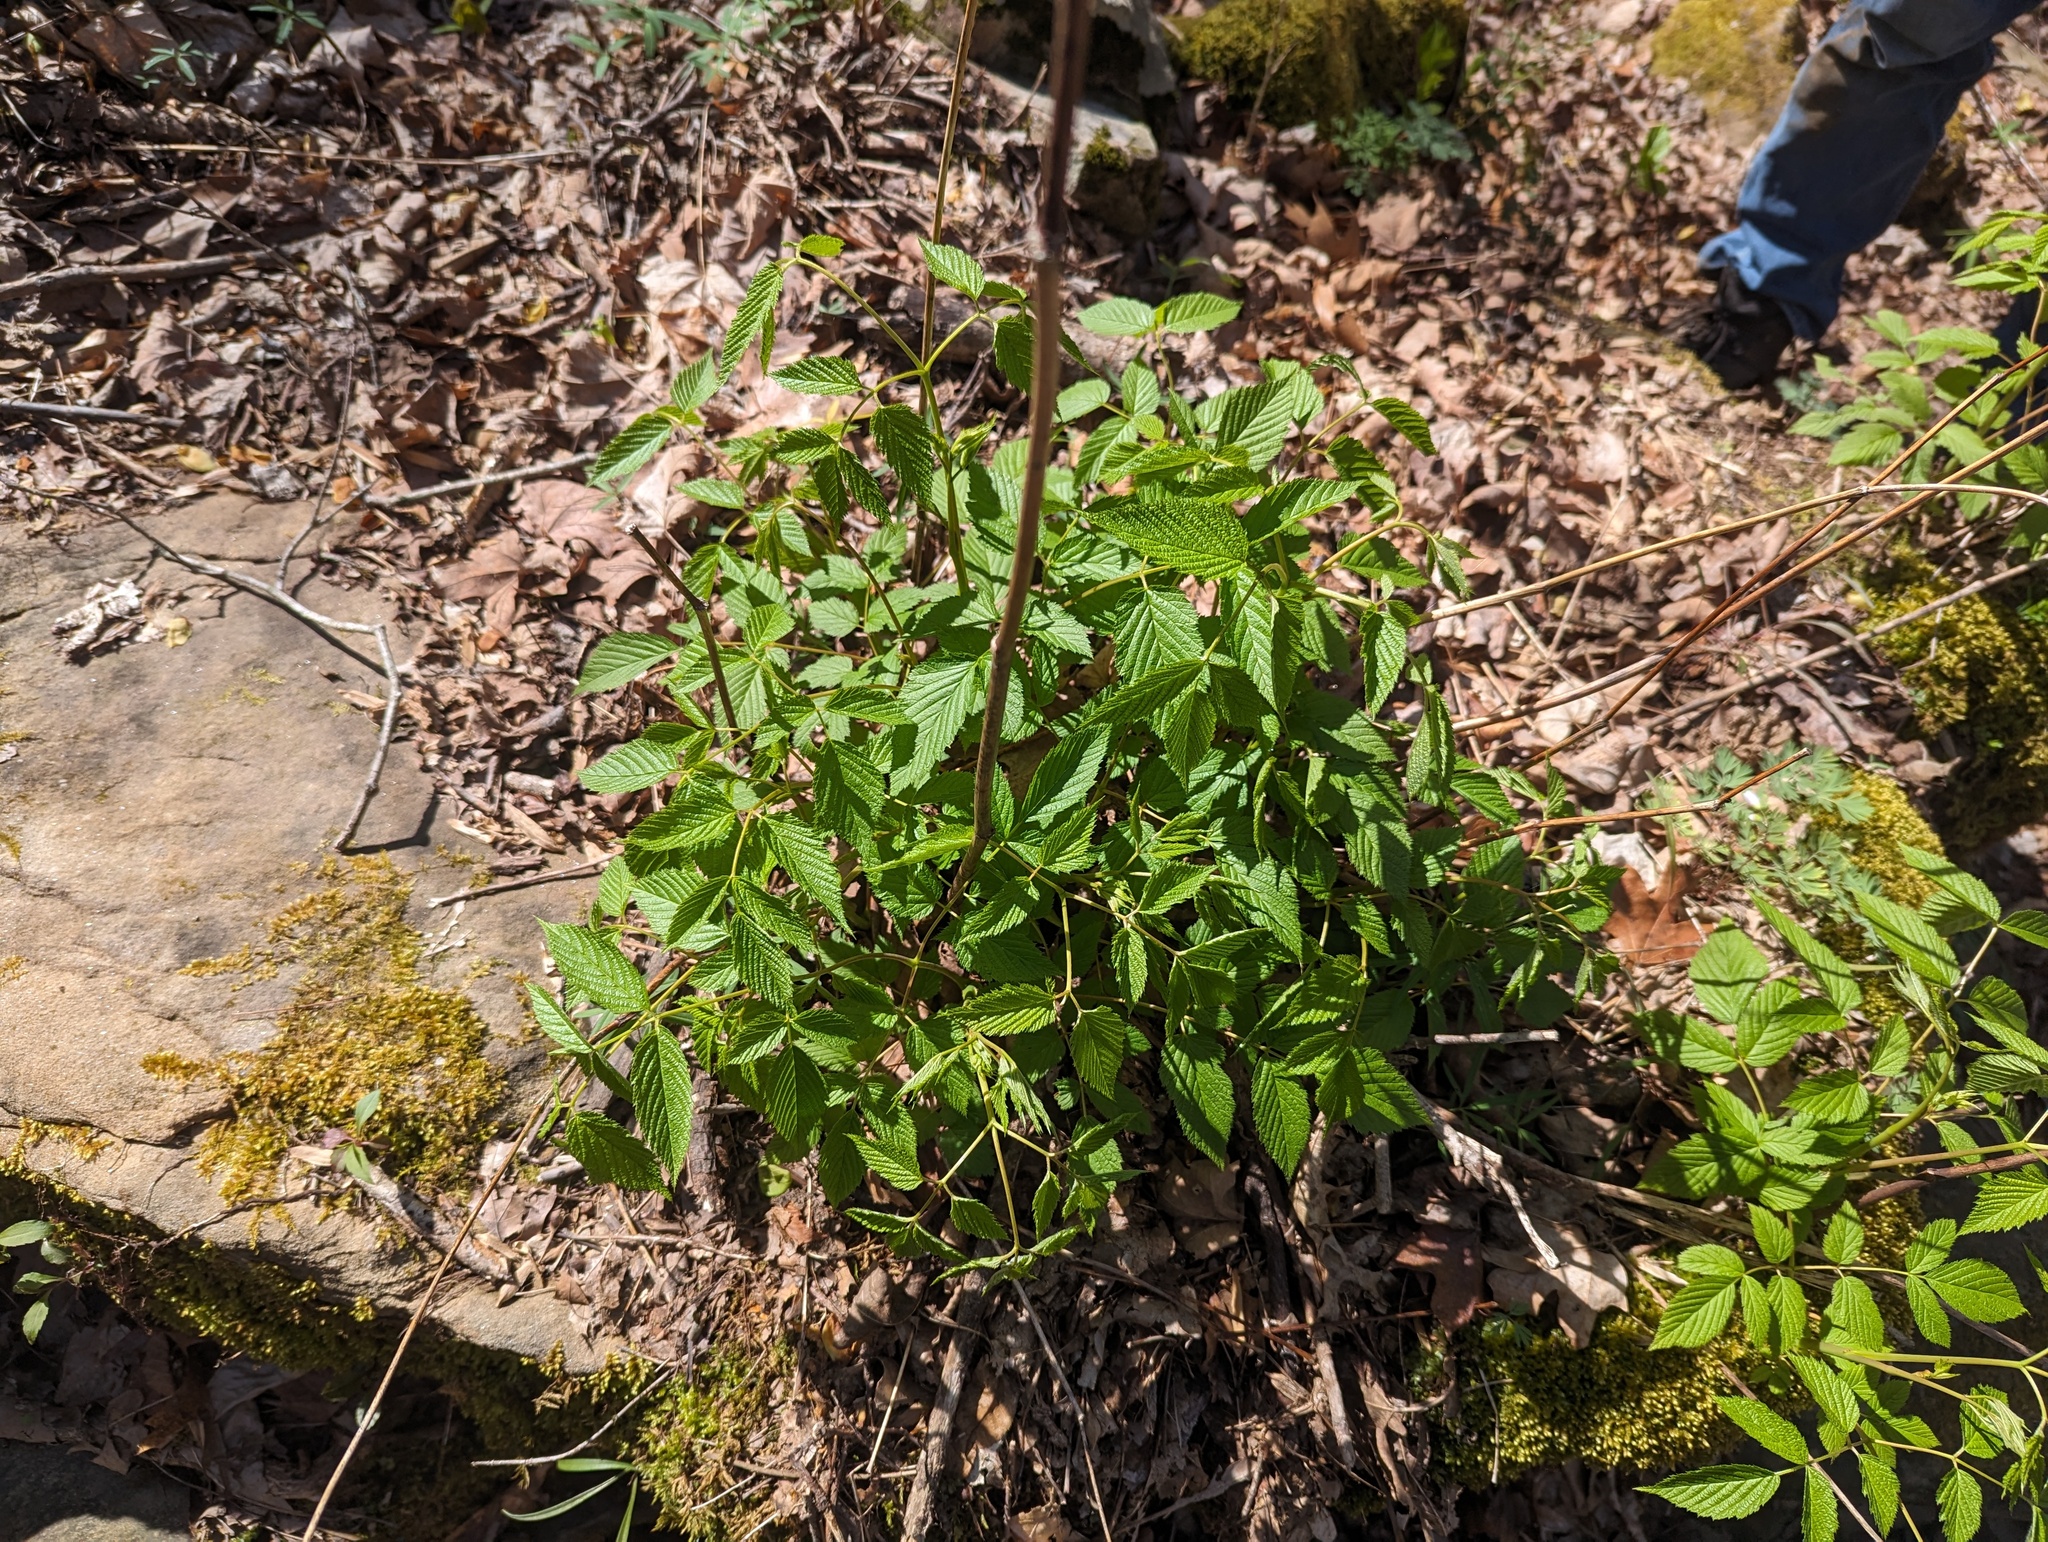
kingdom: Plantae
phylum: Tracheophyta
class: Magnoliopsida
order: Rosales
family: Rosaceae
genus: Aruncus
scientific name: Aruncus dioicus
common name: Buck's-beard
